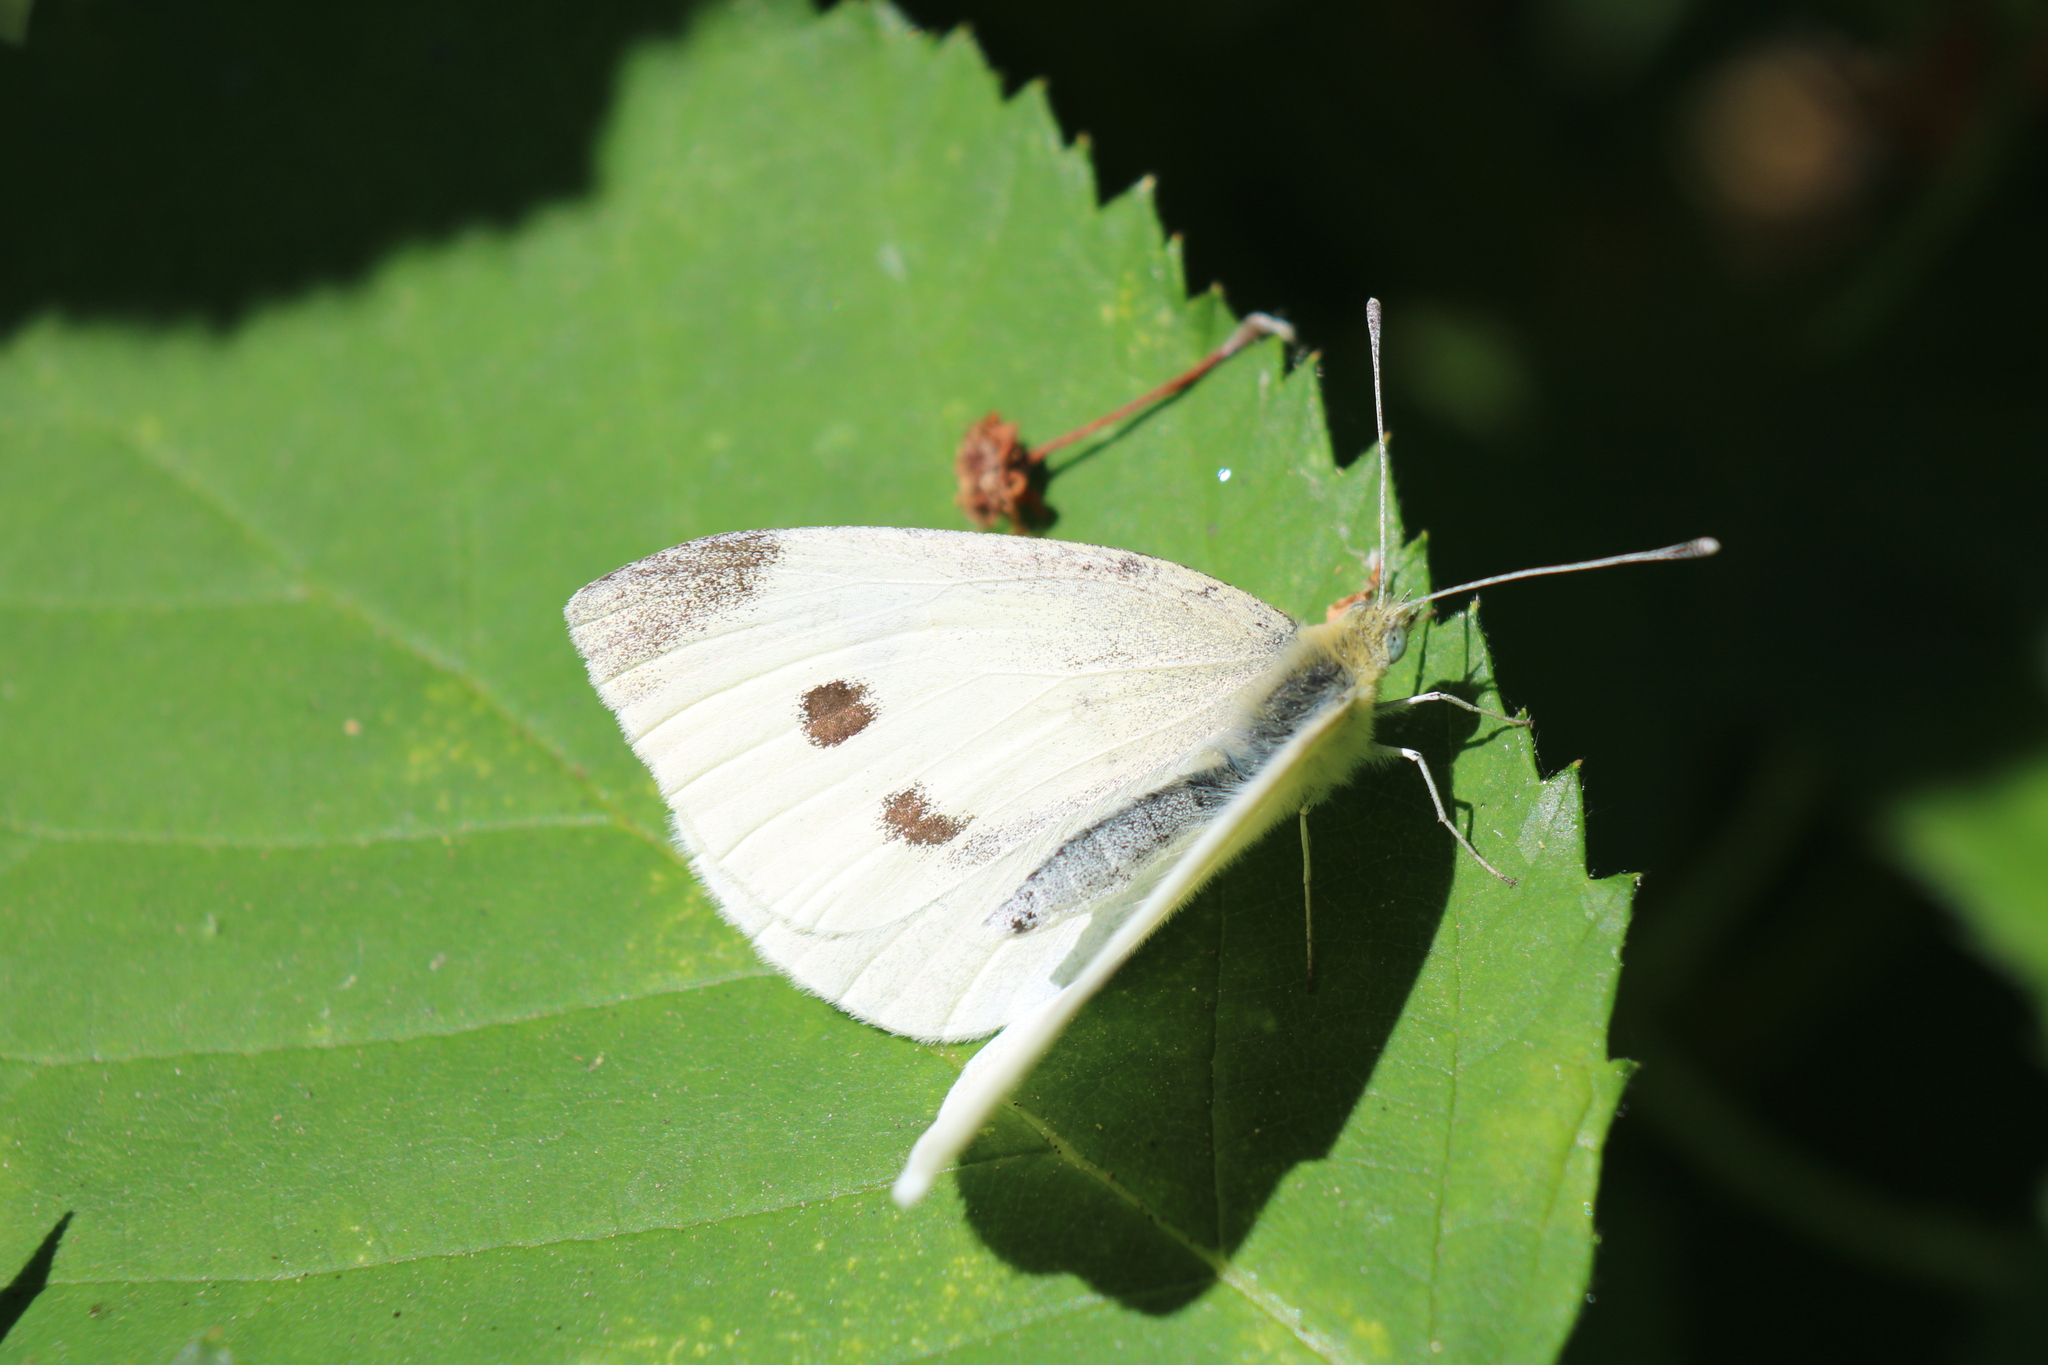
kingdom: Animalia
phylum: Arthropoda
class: Insecta
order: Lepidoptera
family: Pieridae
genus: Pieris
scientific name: Pieris rapae
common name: Small white
